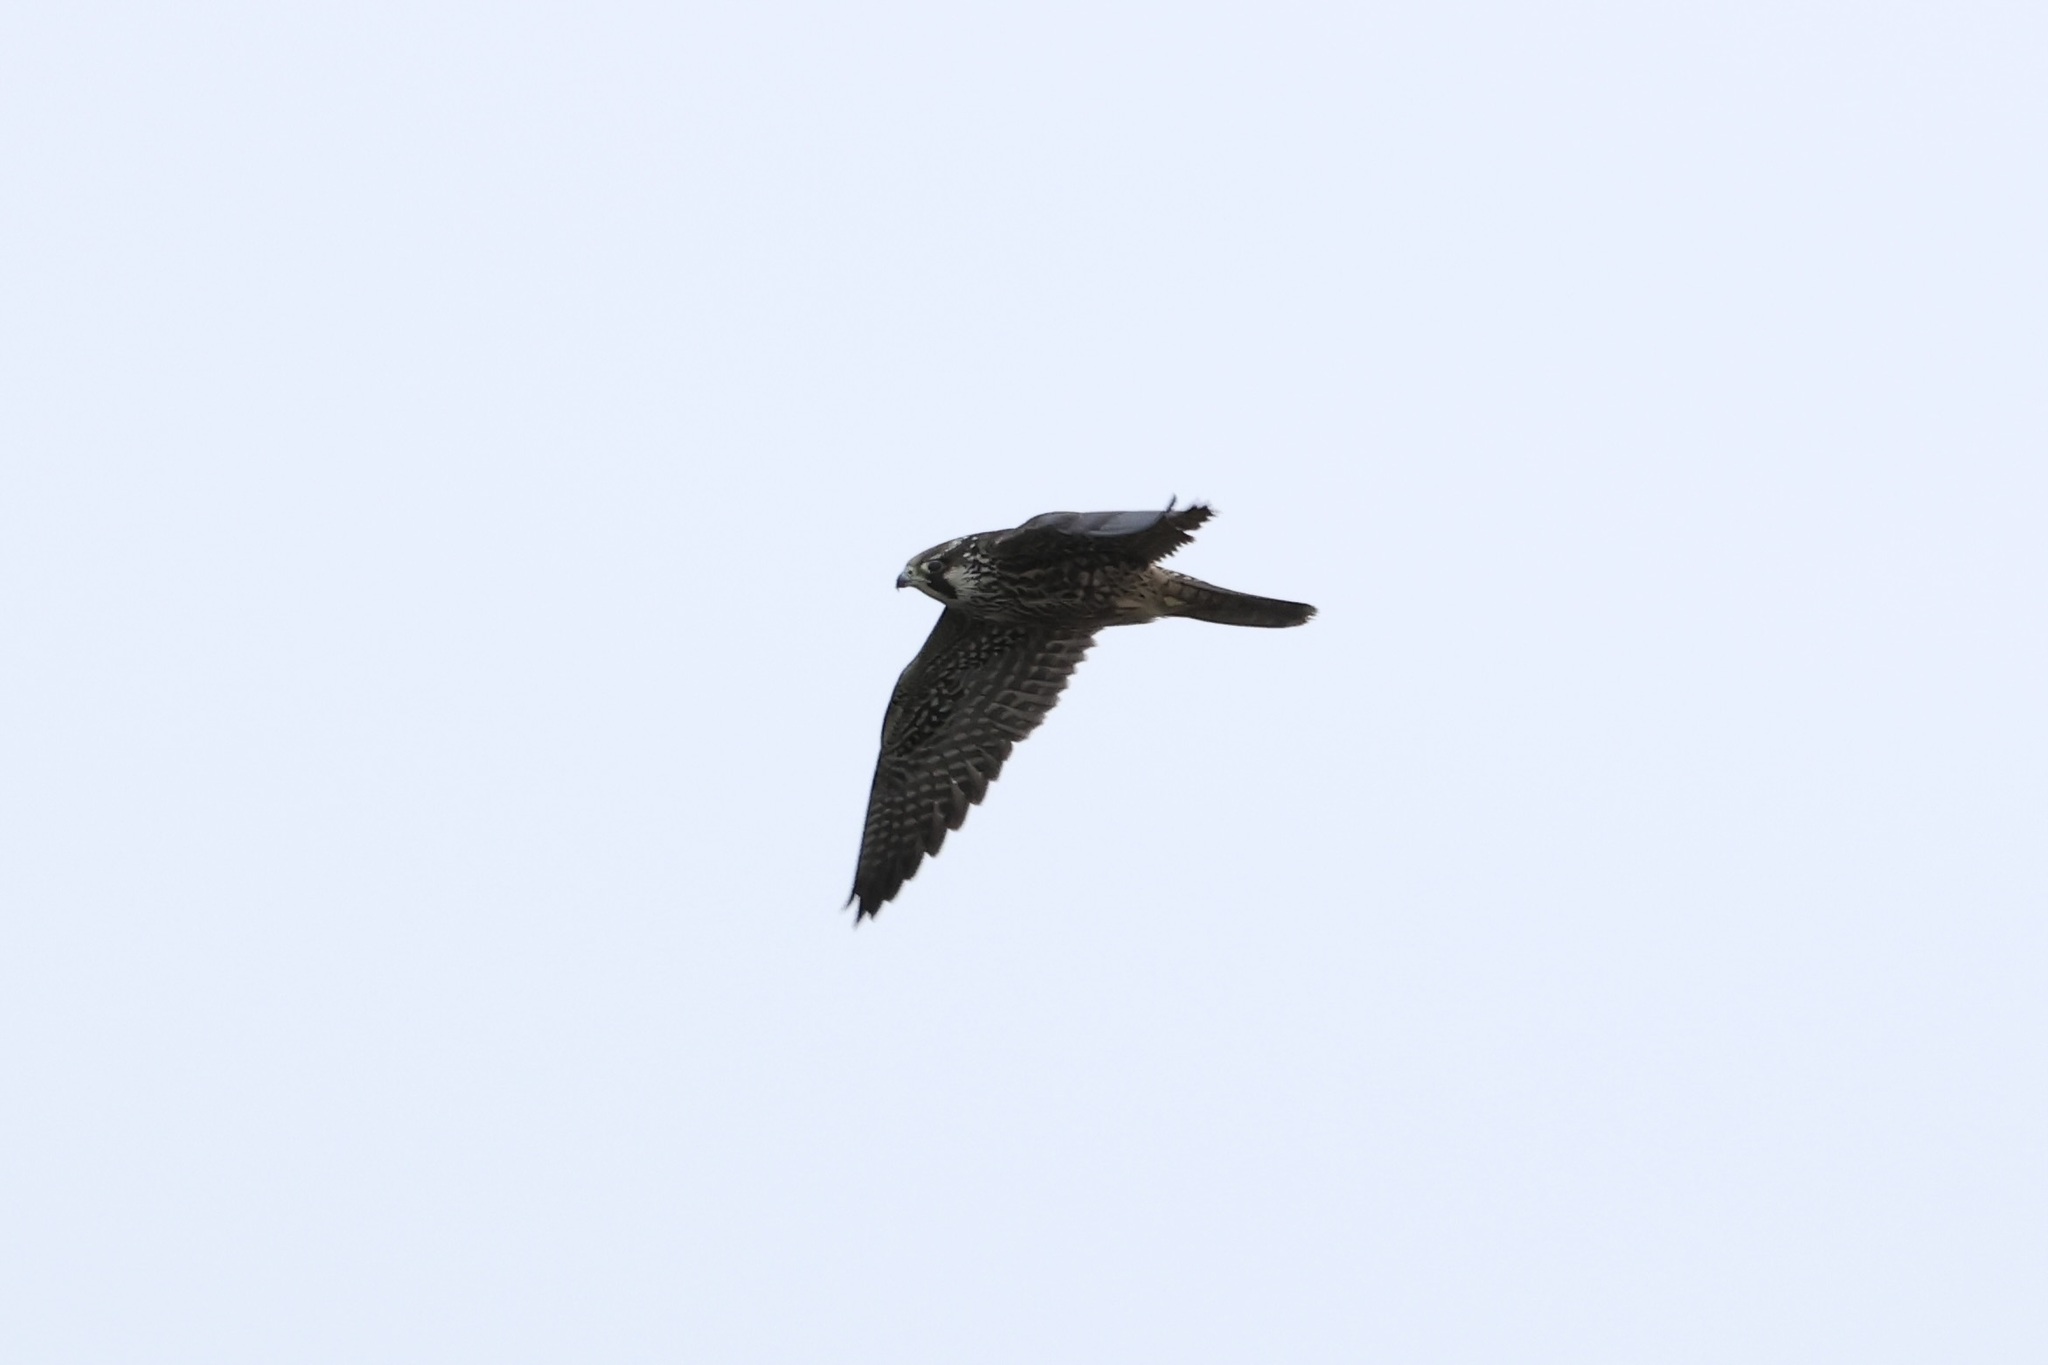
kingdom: Animalia
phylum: Chordata
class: Aves
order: Falconiformes
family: Falconidae
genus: Falco
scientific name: Falco peregrinus
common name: Peregrine falcon
